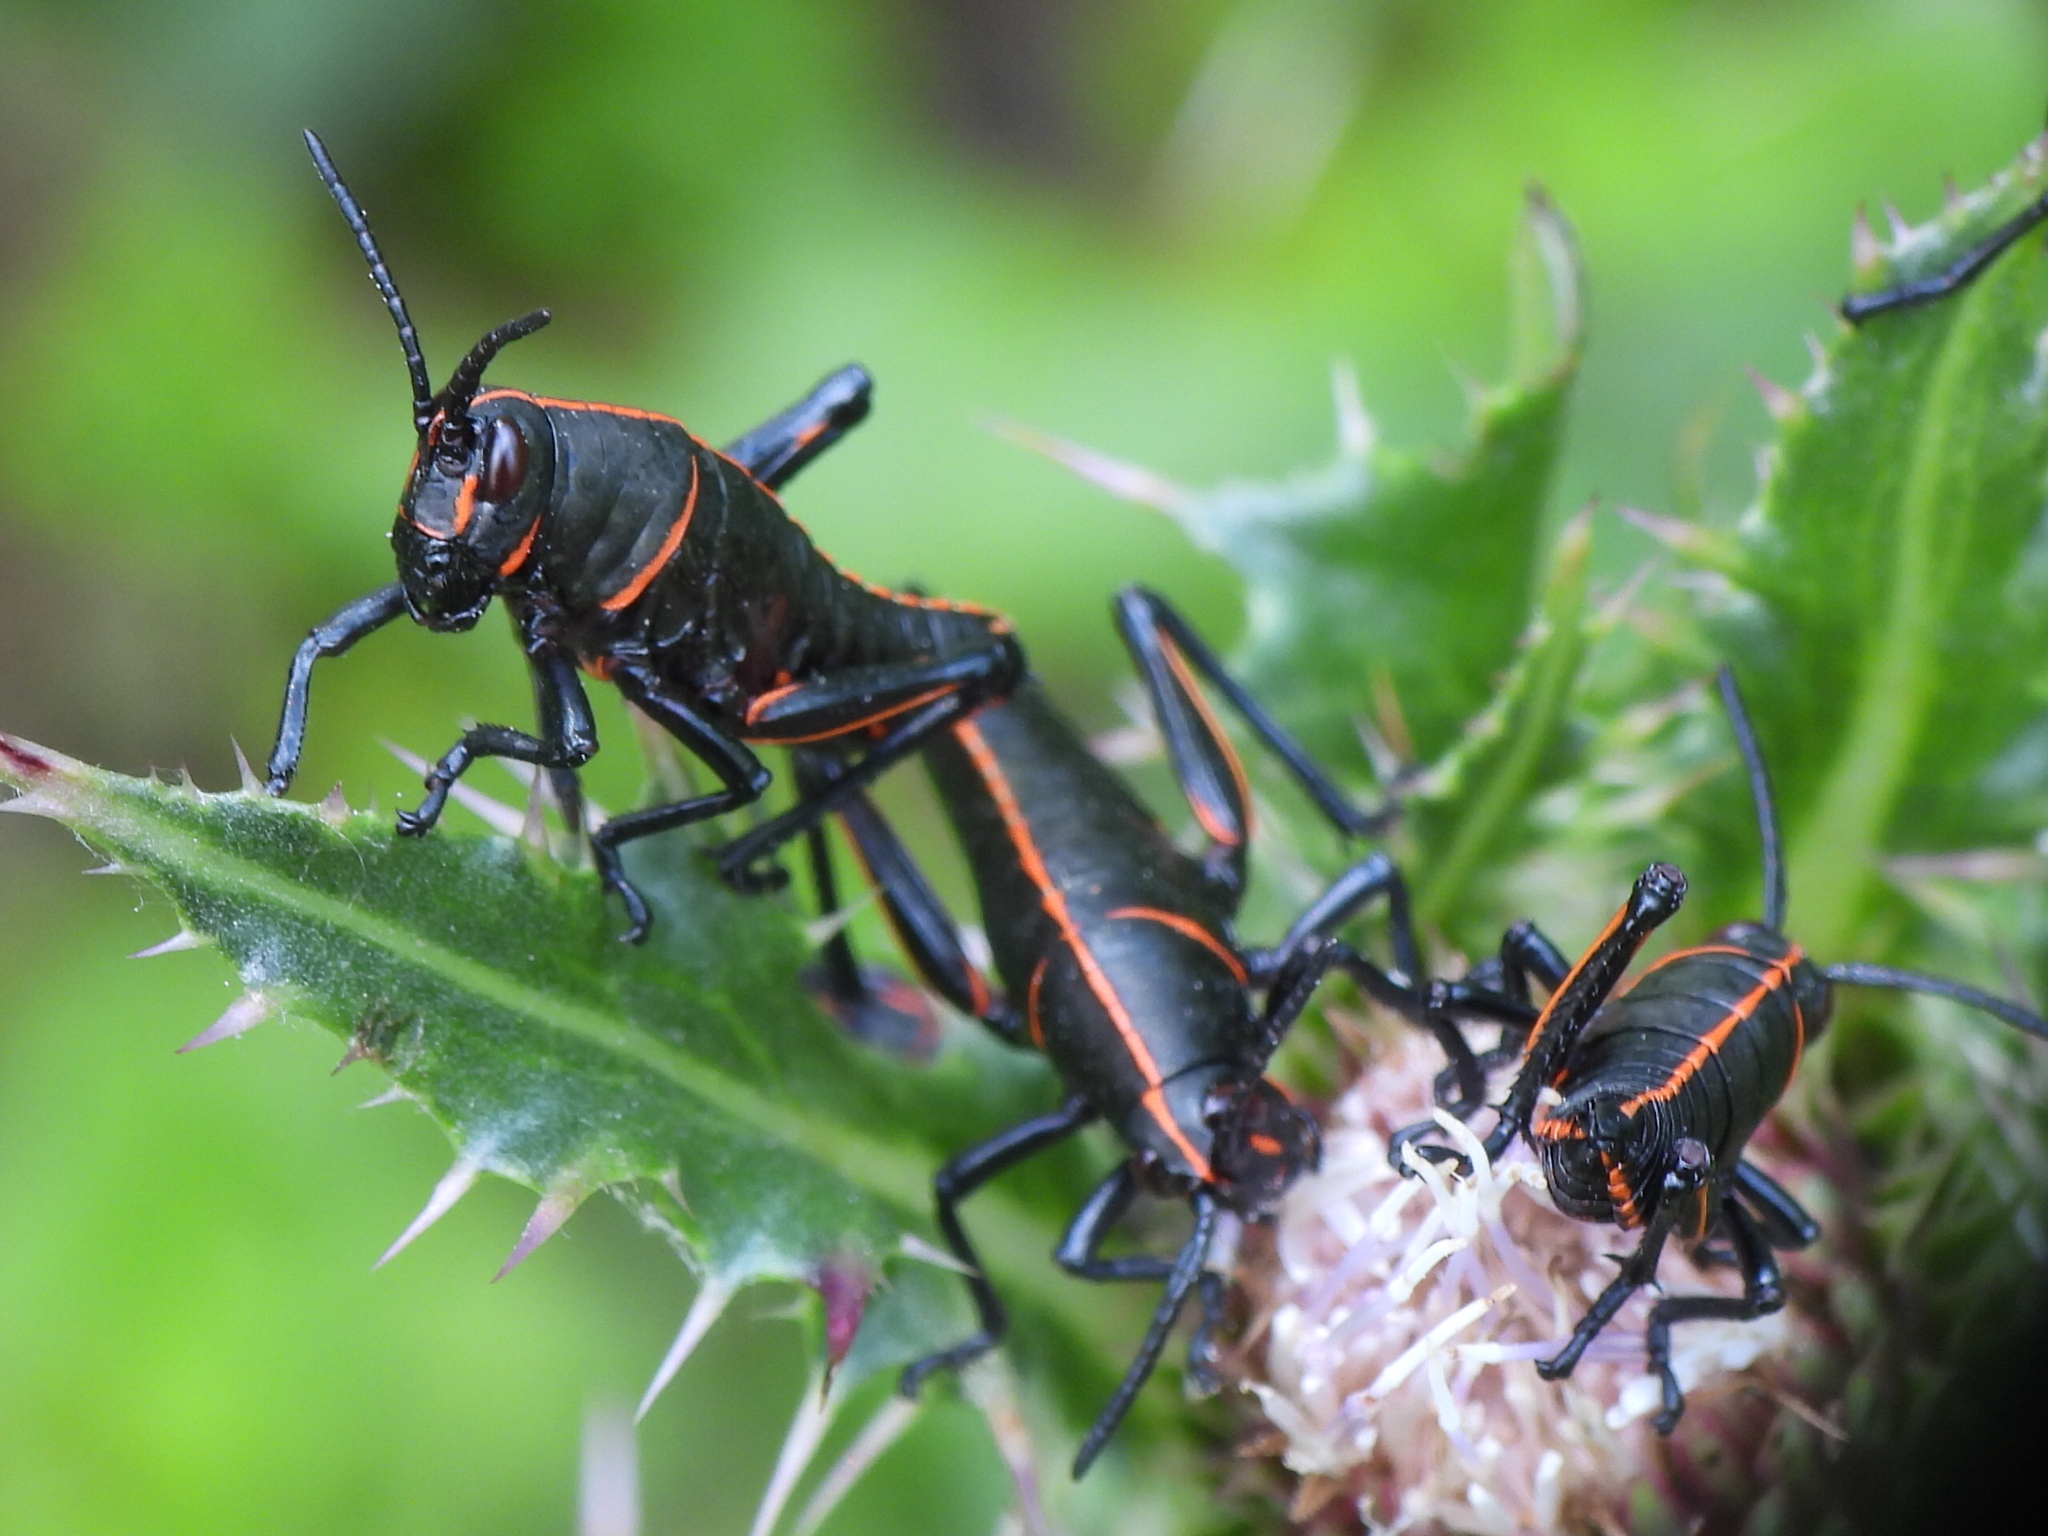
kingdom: Animalia
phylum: Arthropoda
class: Insecta
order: Orthoptera
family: Romaleidae
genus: Romalea
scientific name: Romalea microptera
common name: Eastern lubber grasshopper
